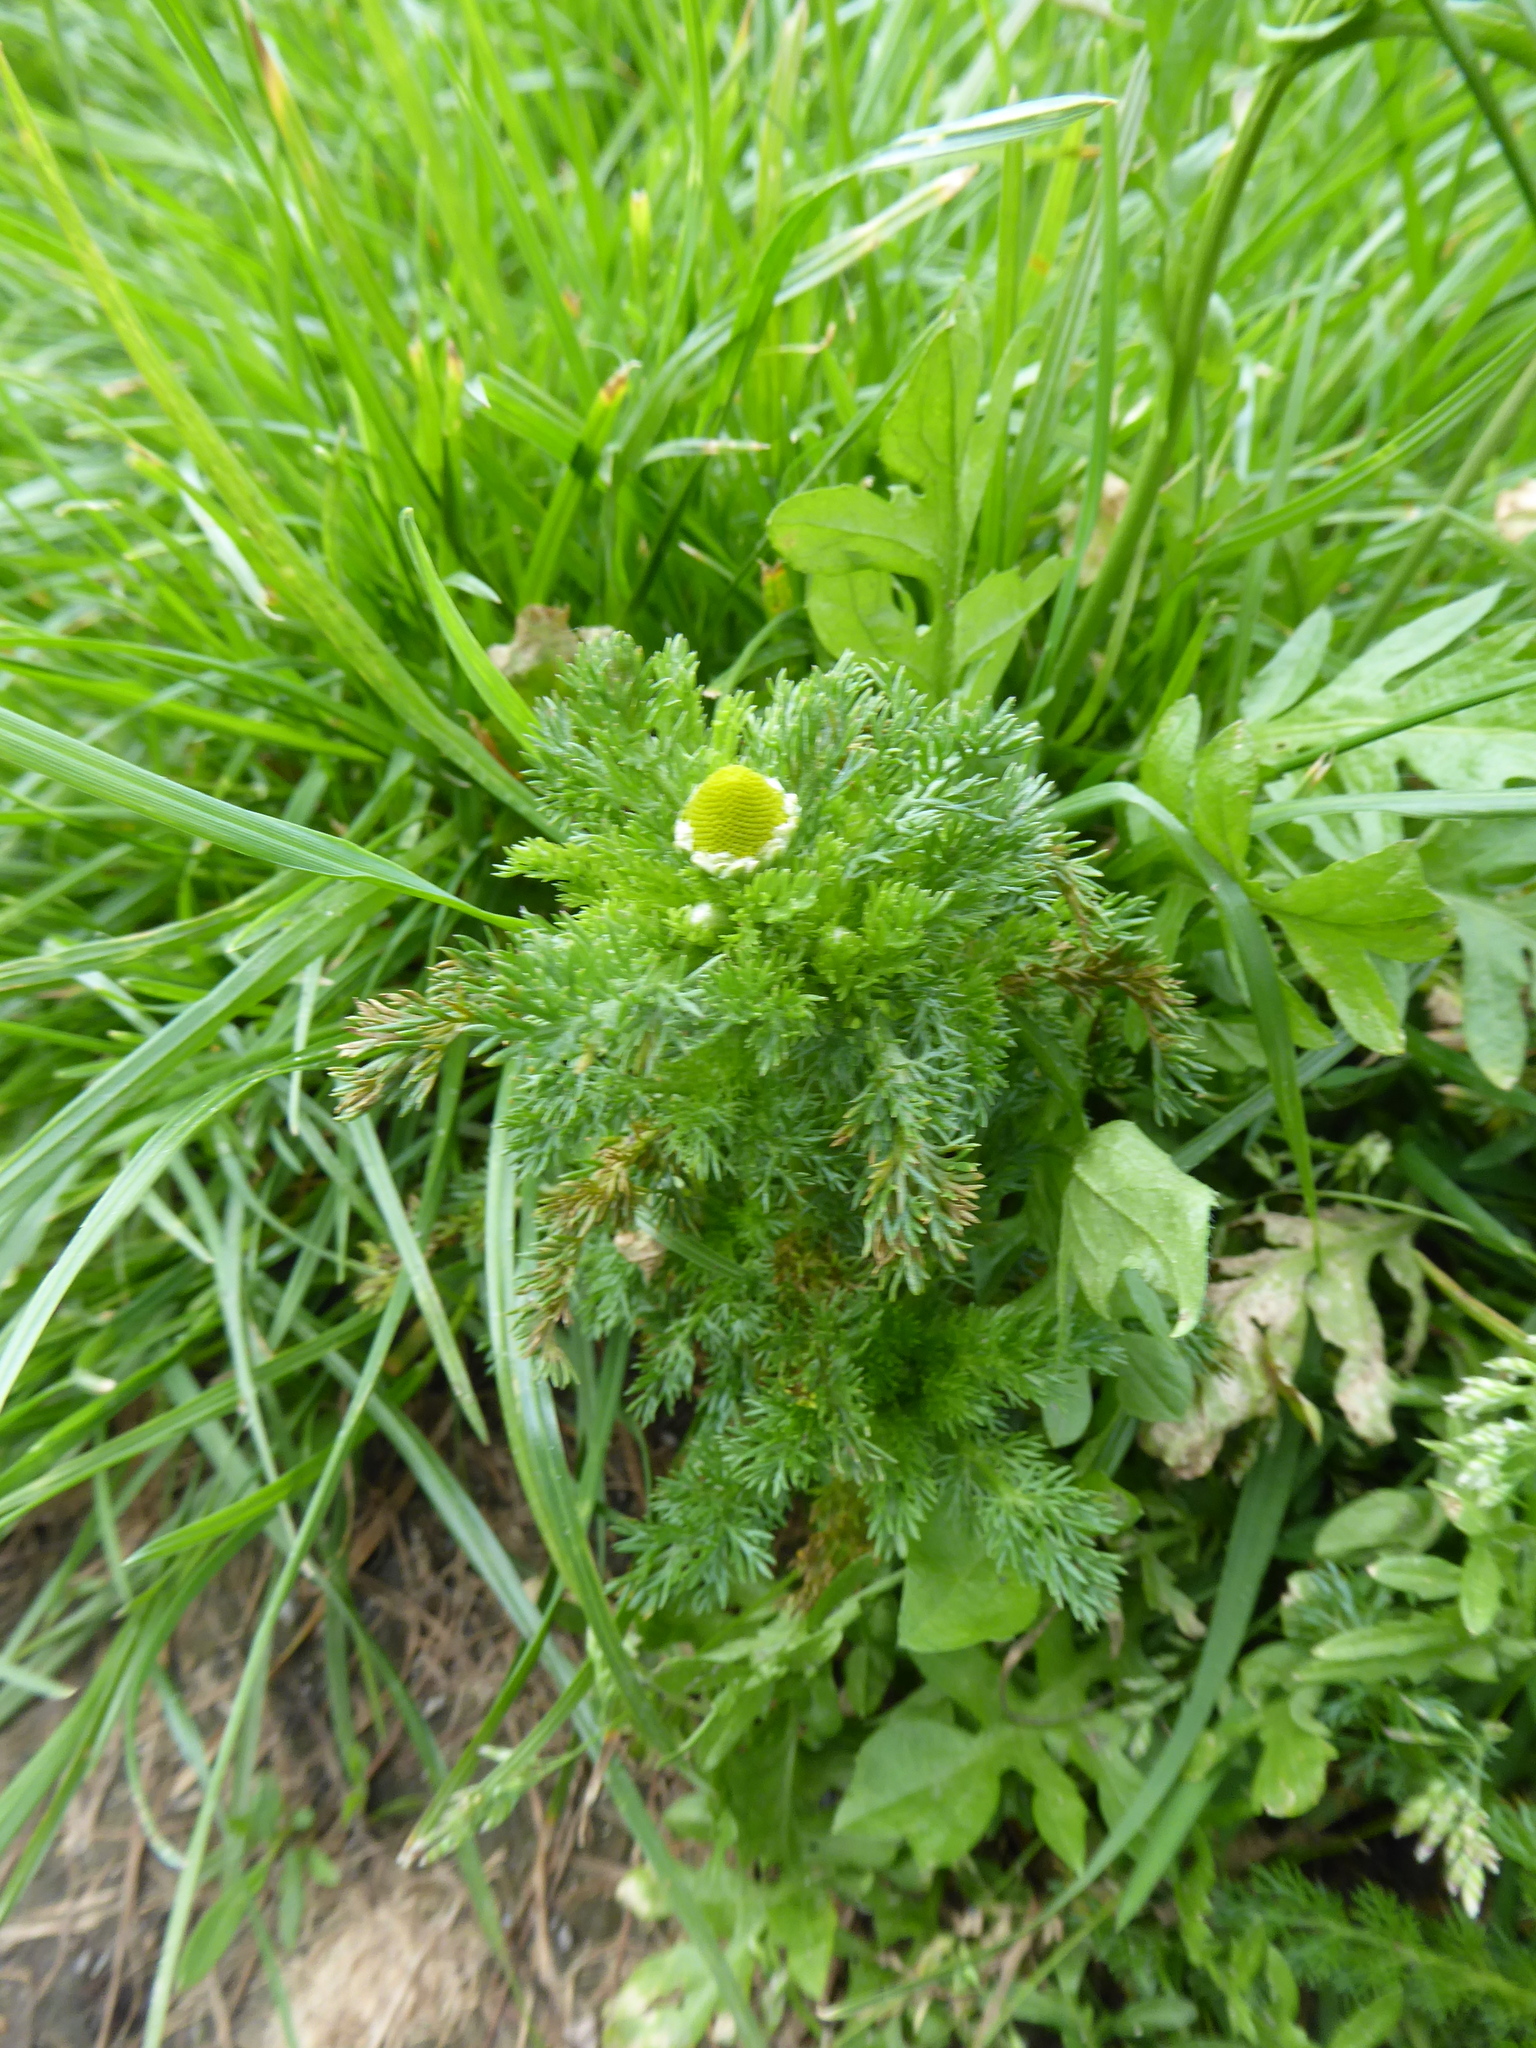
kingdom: Plantae
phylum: Tracheophyta
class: Magnoliopsida
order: Asterales
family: Asteraceae
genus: Matricaria
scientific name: Matricaria discoidea
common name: Disc mayweed
